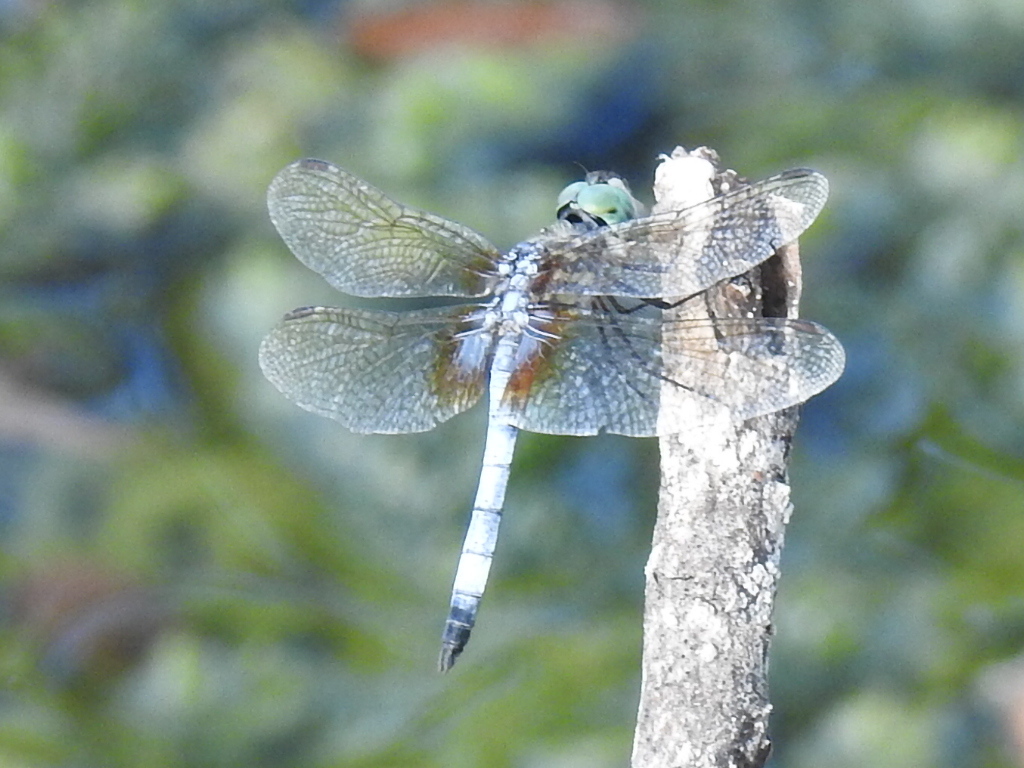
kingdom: Animalia
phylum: Arthropoda
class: Insecta
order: Odonata
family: Libellulidae
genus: Pachydiplax
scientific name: Pachydiplax longipennis
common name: Blue dasher
